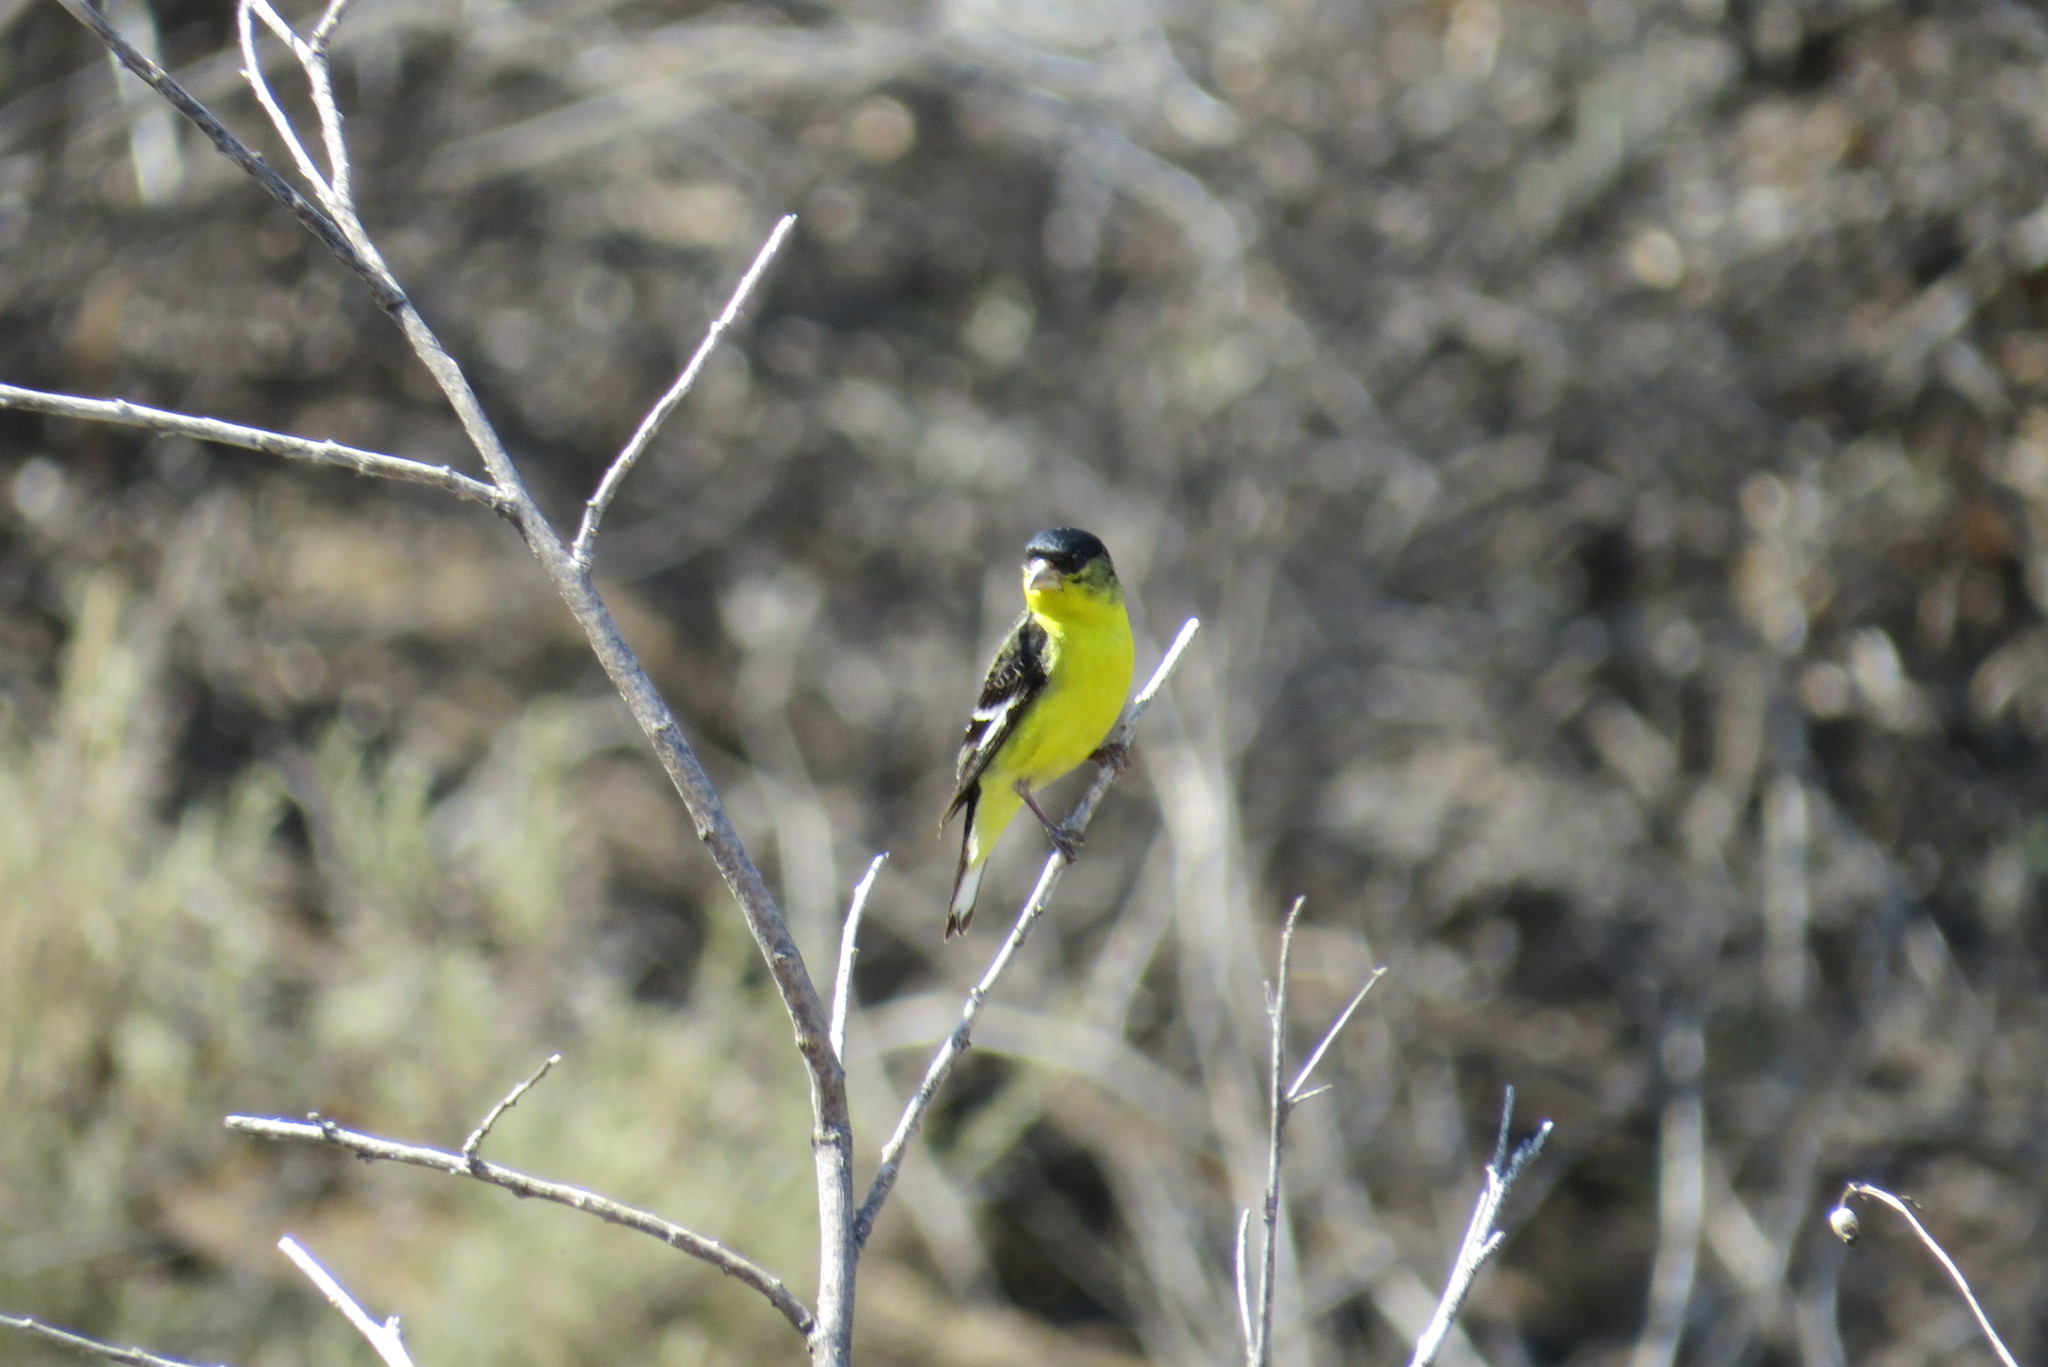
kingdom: Animalia
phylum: Chordata
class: Aves
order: Passeriformes
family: Fringillidae
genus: Spinus
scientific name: Spinus psaltria
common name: Lesser goldfinch
